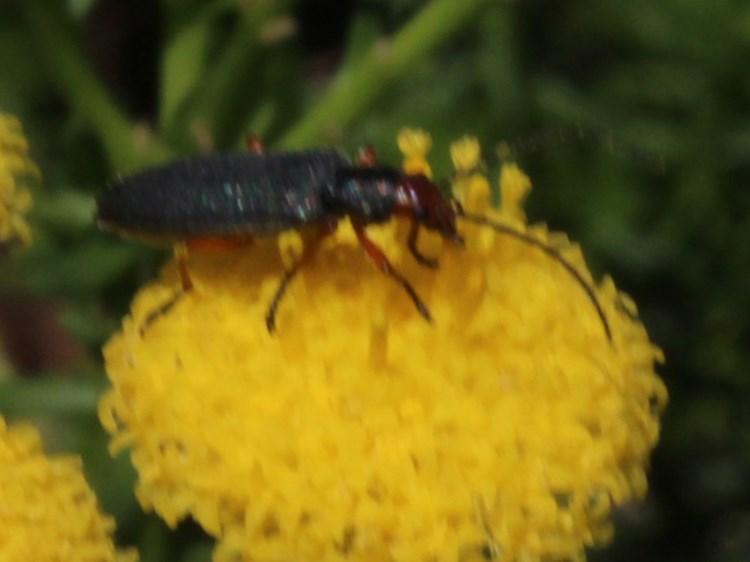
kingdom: Animalia
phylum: Arthropoda
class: Insecta
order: Coleoptera
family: Oedemeridae
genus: Melananthia
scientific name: Melananthia
